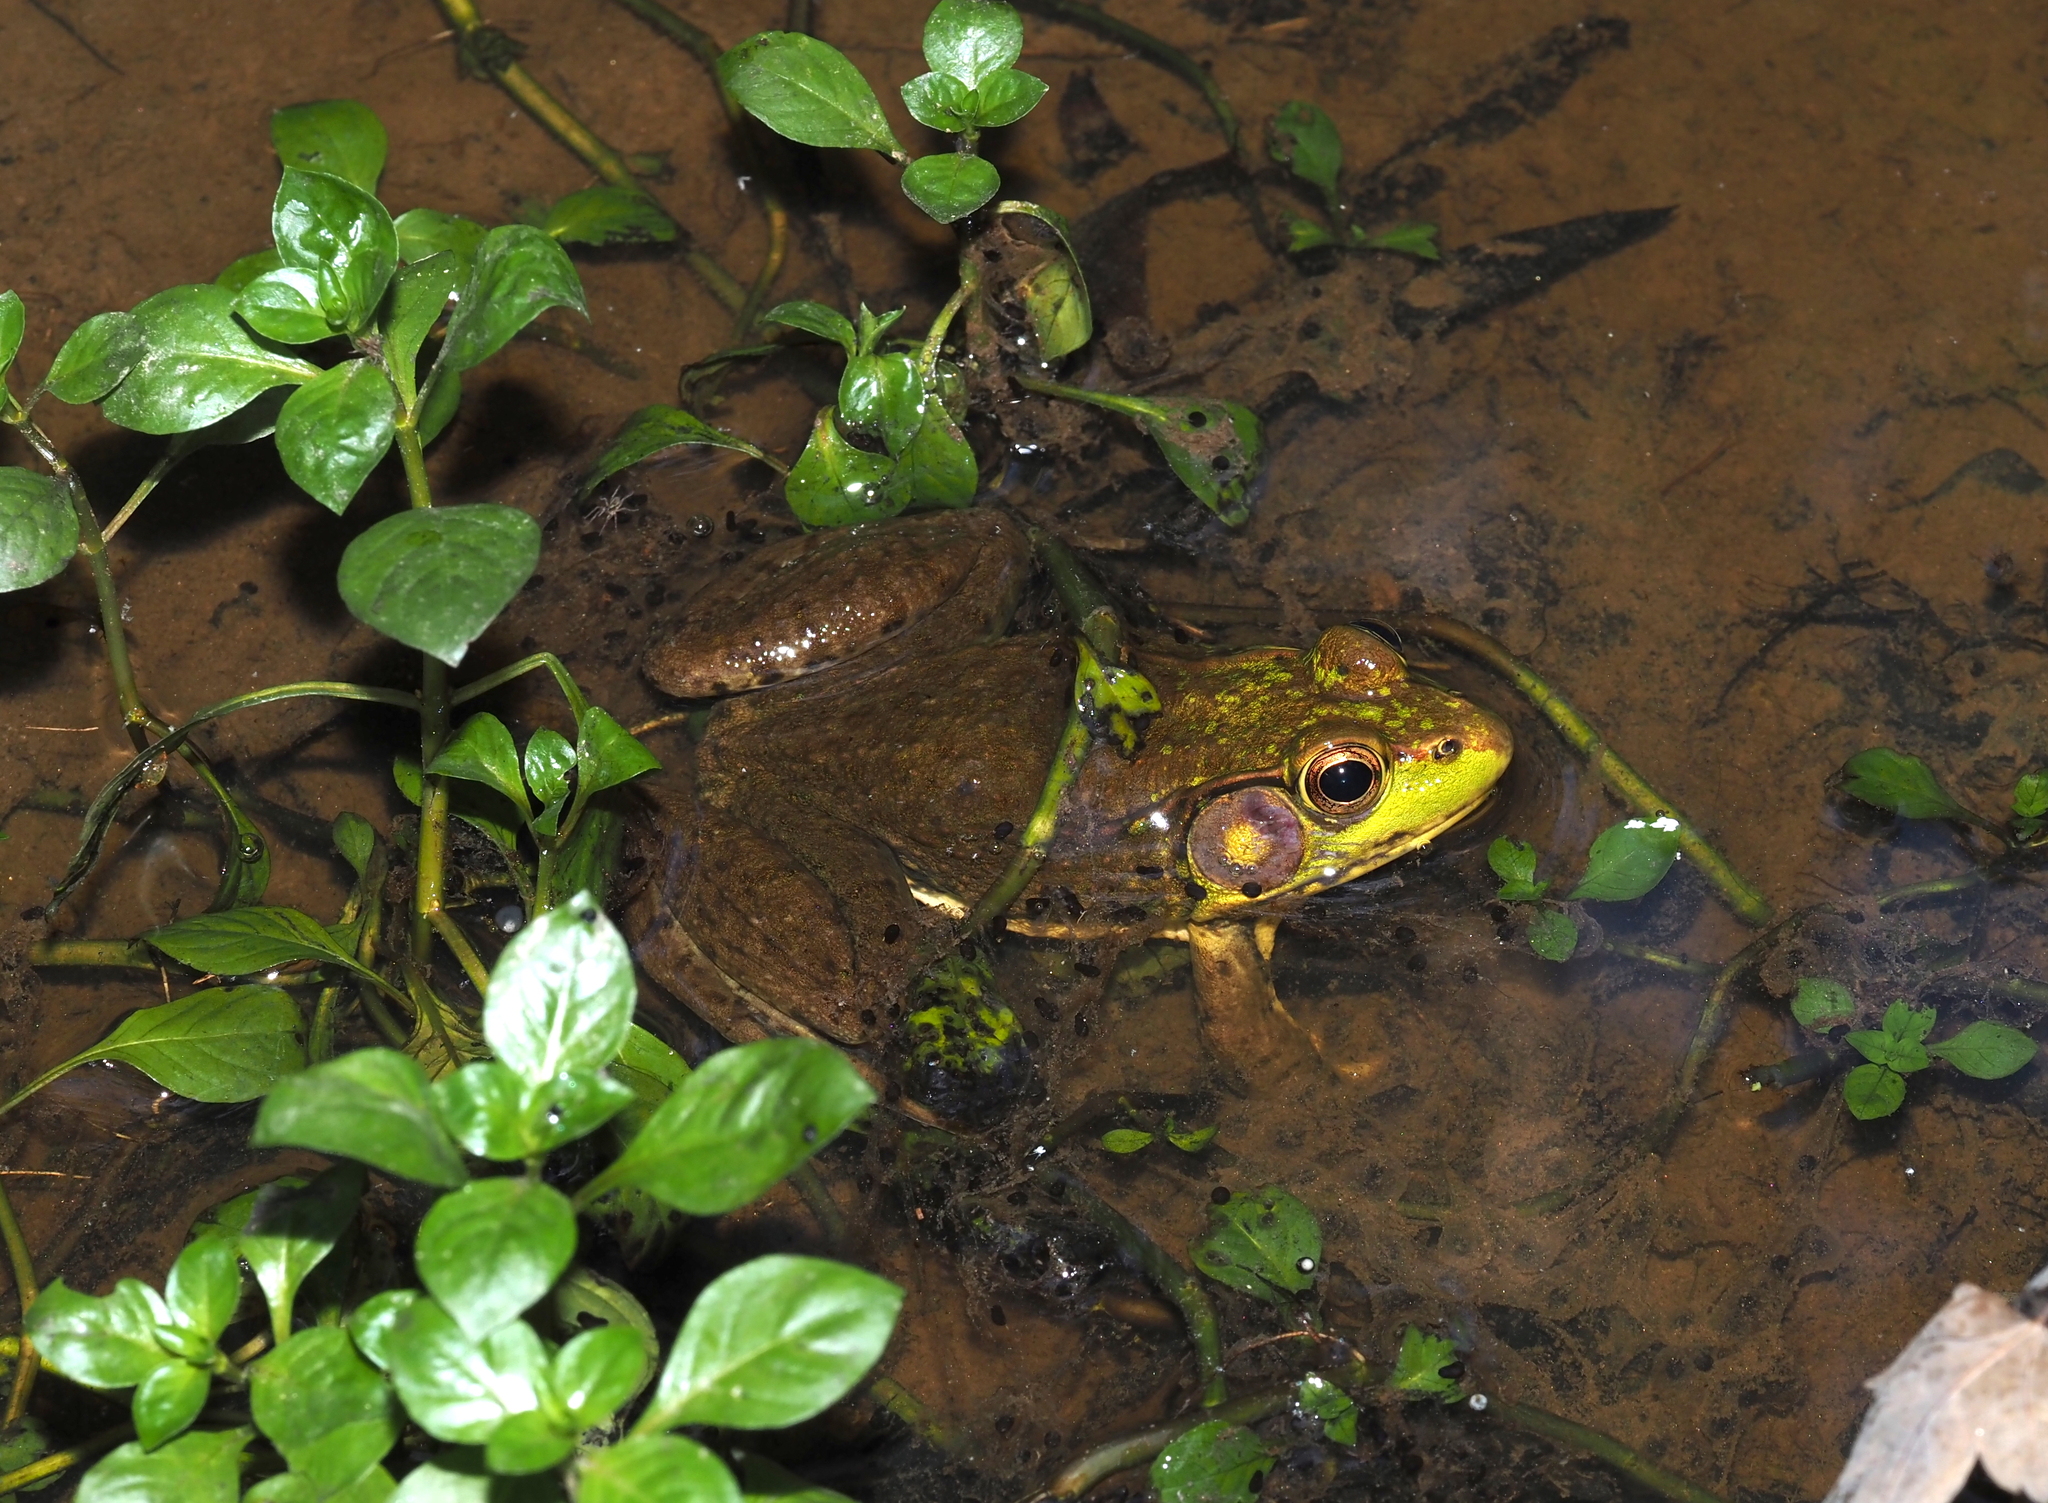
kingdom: Animalia
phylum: Chordata
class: Amphibia
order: Anura
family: Ranidae
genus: Lithobates
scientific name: Lithobates clamitans
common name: Green frog
